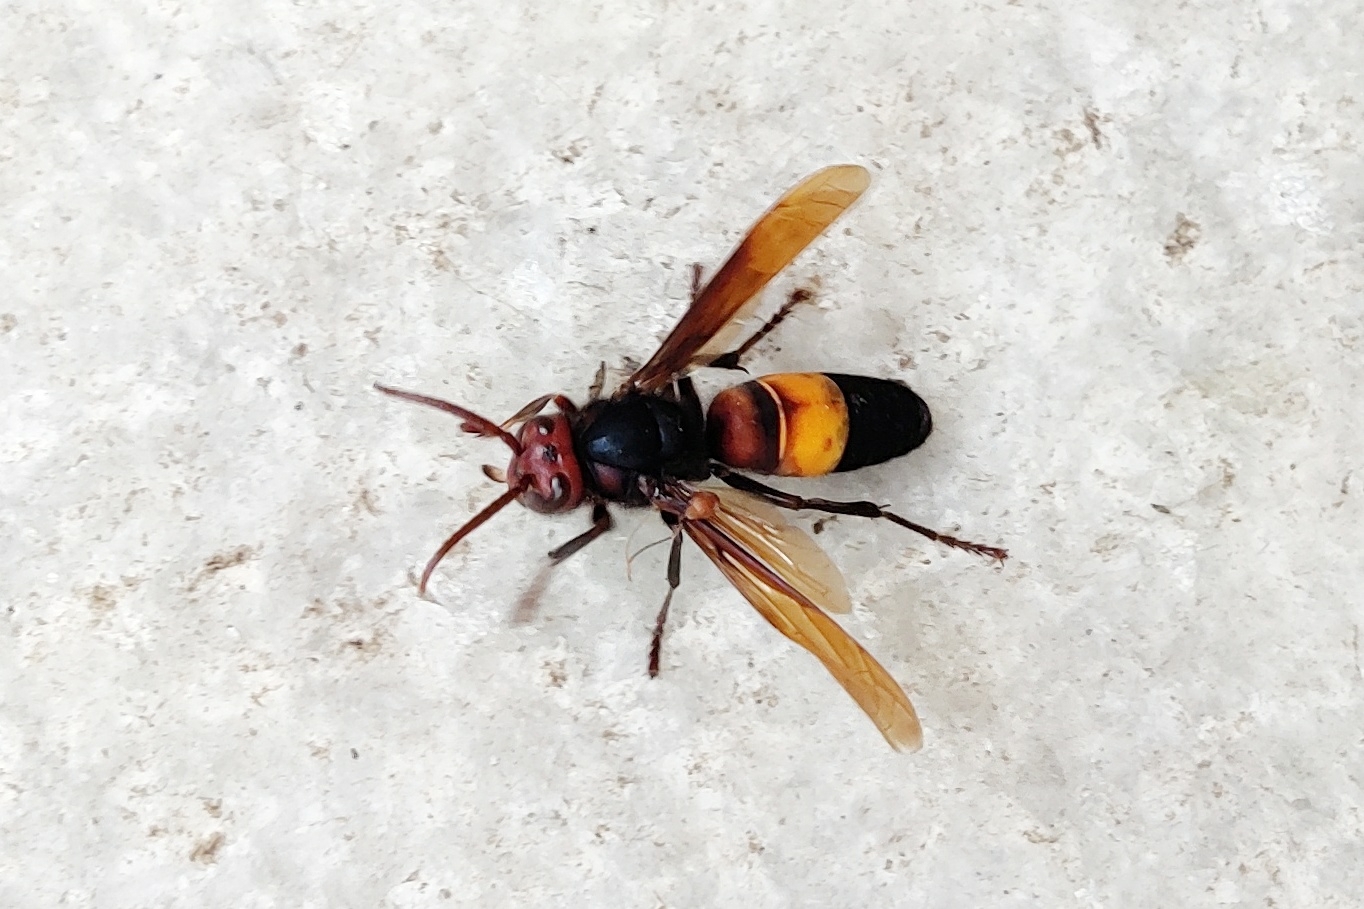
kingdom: Animalia
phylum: Arthropoda
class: Insecta
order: Hymenoptera
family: Vespidae
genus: Vespa
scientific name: Vespa affinis
